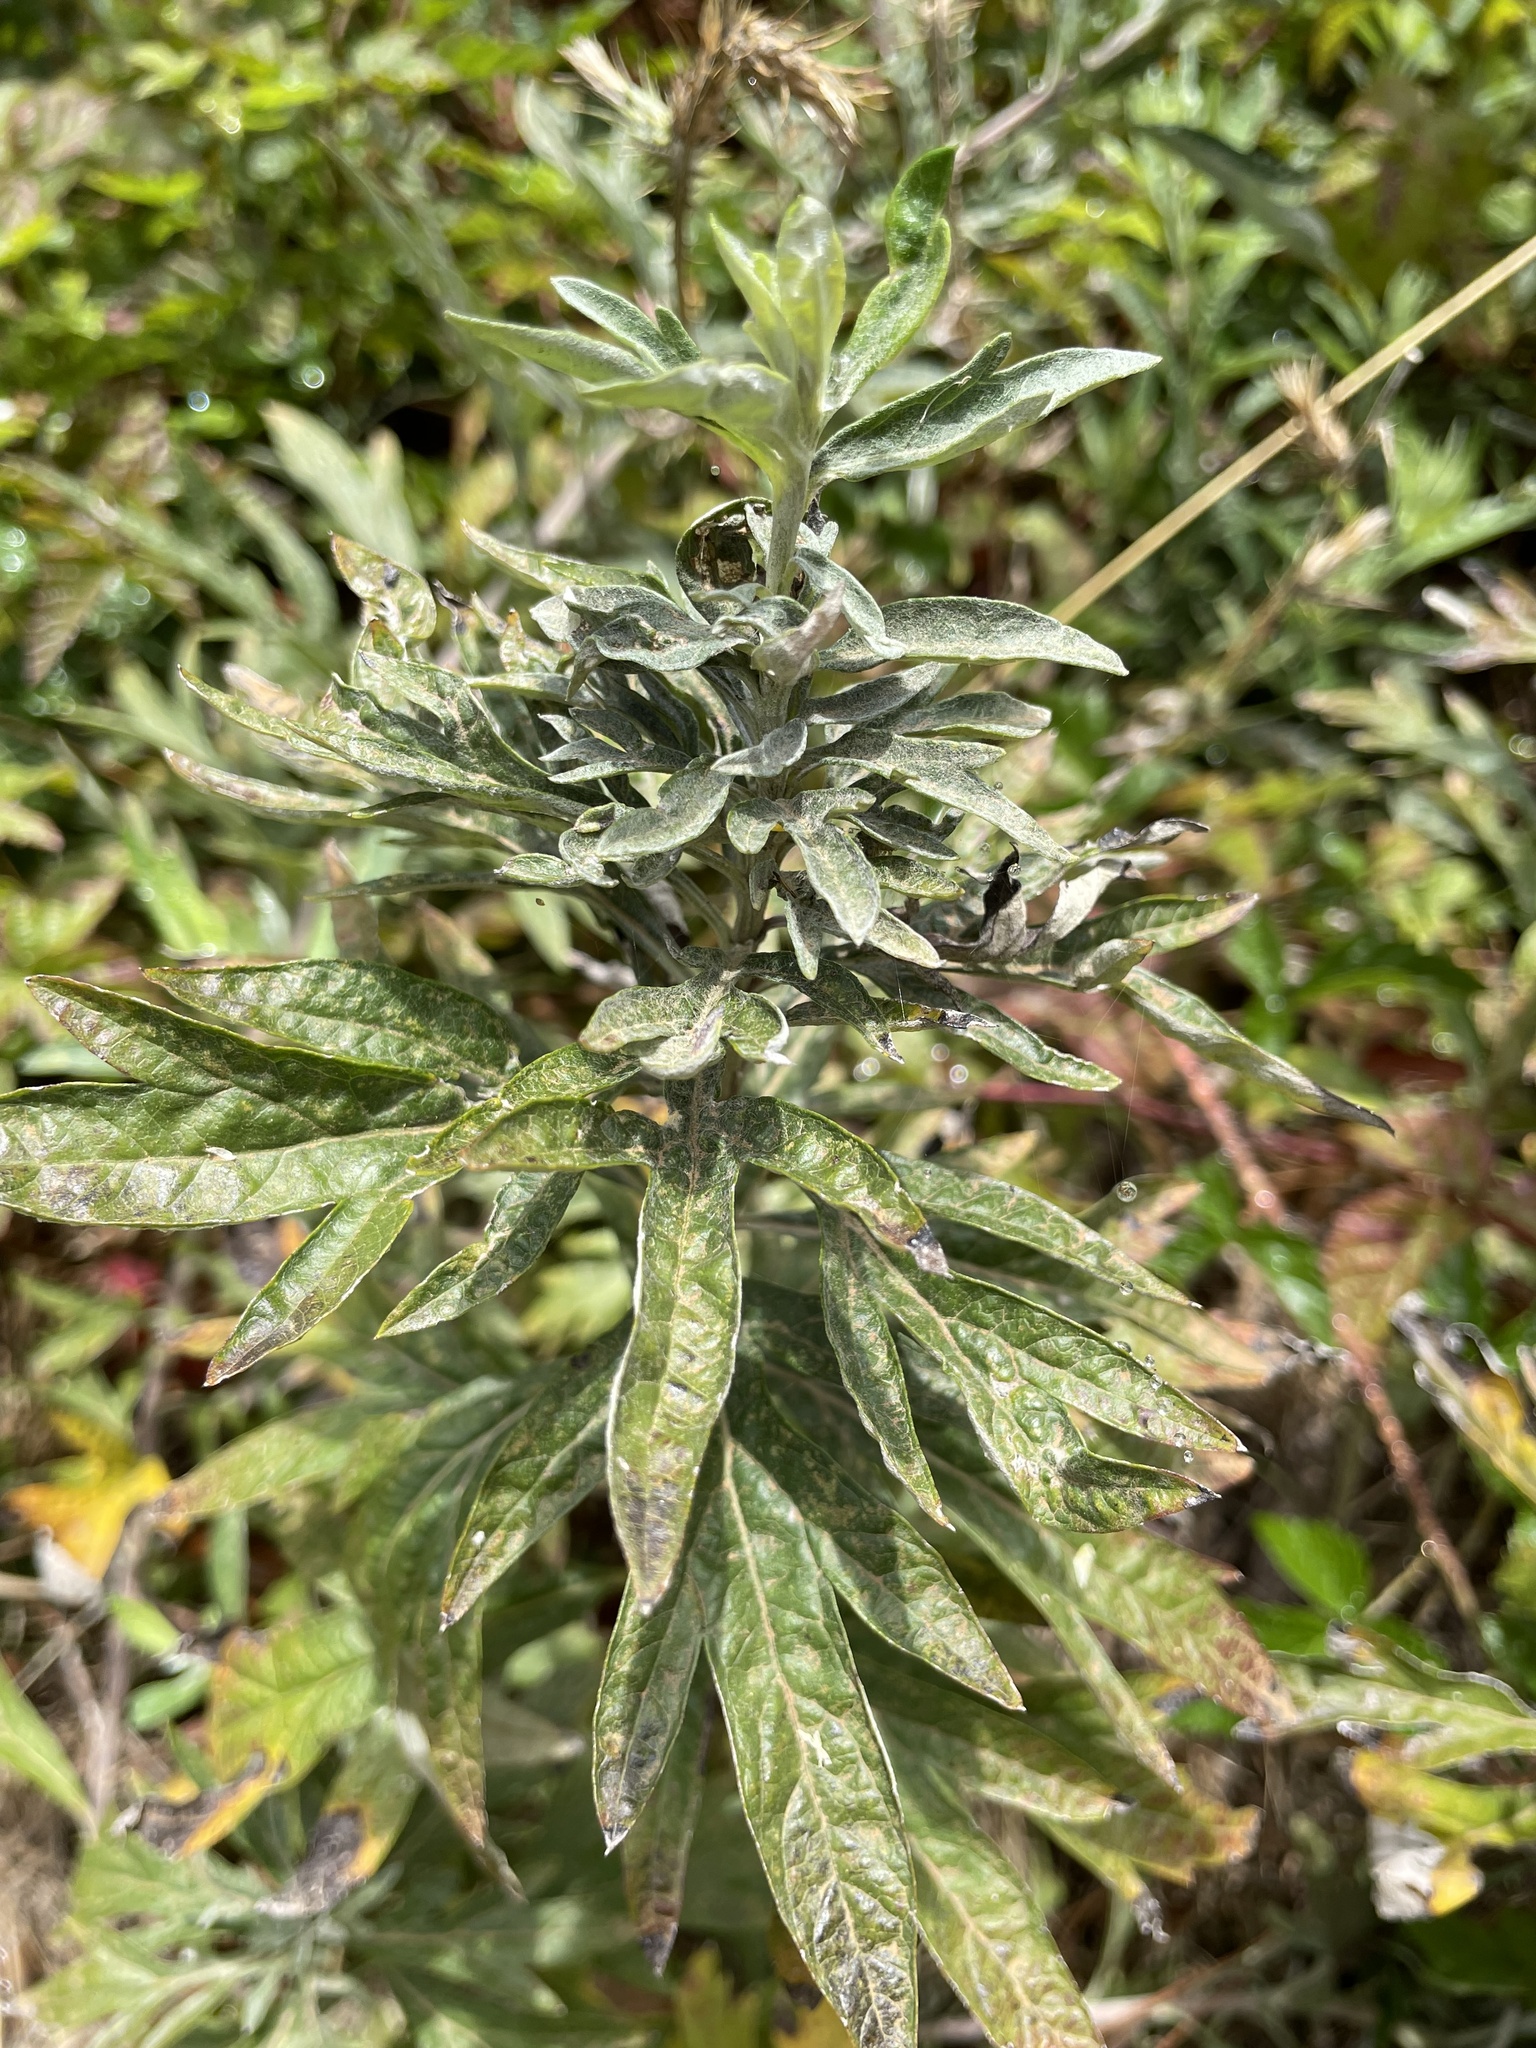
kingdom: Plantae
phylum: Tracheophyta
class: Magnoliopsida
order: Asterales
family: Asteraceae
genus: Artemisia
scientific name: Artemisia douglasiana
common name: Northwest mugwort
